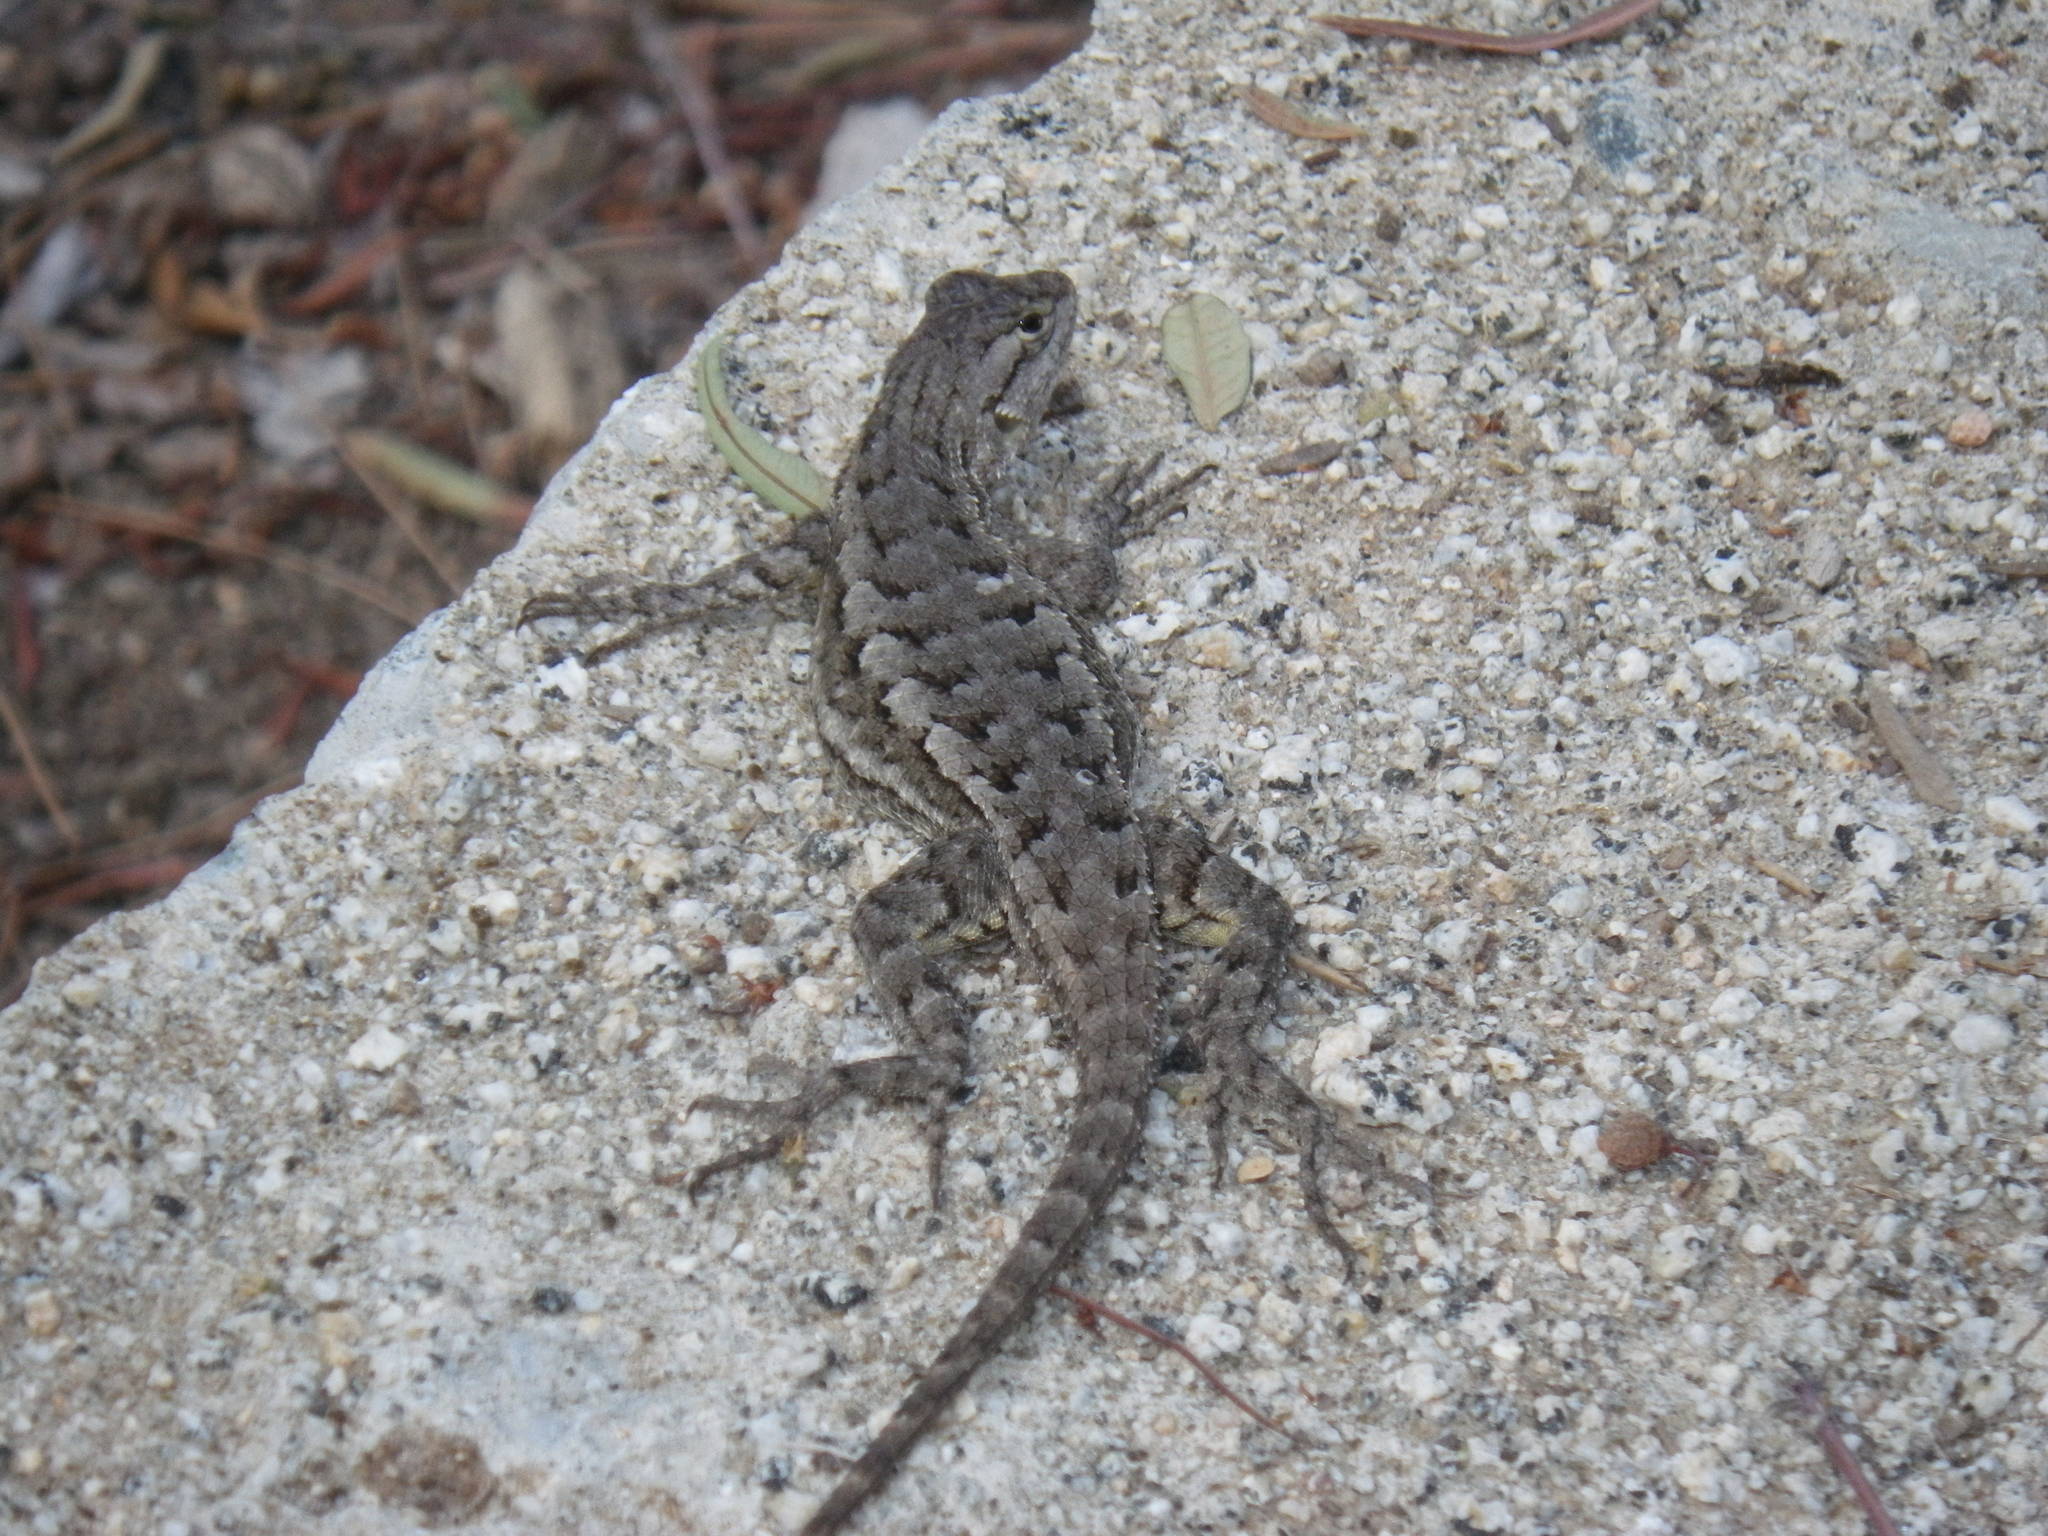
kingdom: Animalia
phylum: Chordata
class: Squamata
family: Phrynosomatidae
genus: Sceloporus
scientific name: Sceloporus occidentalis
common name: Western fence lizard
